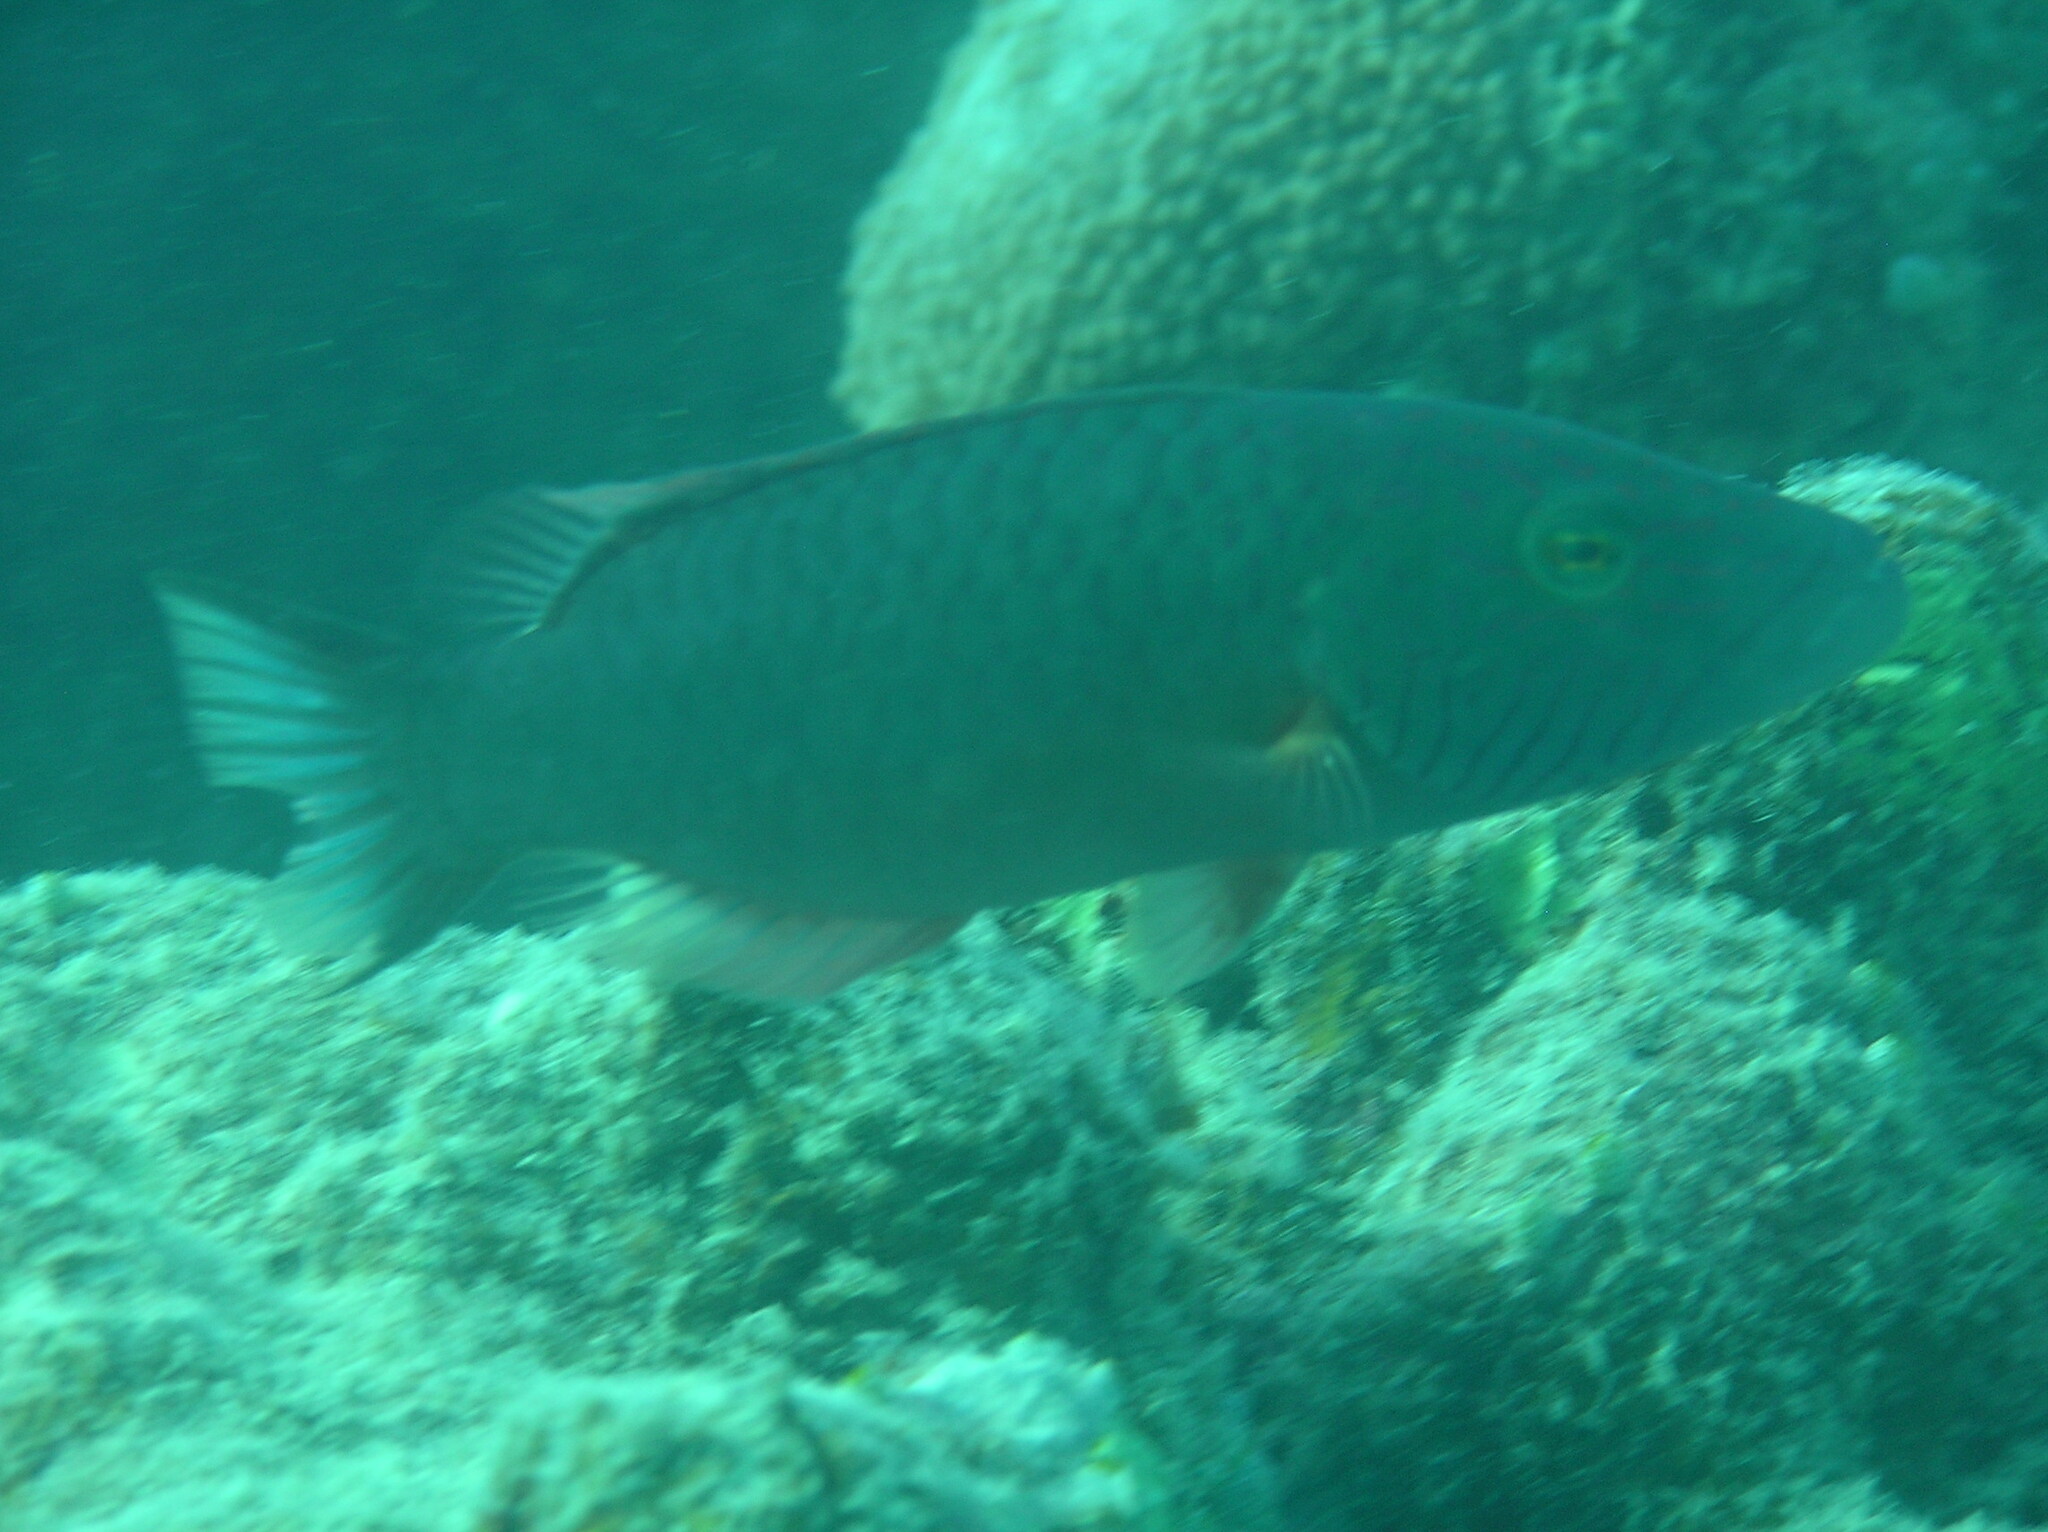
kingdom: Animalia
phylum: Chordata
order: Perciformes
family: Labridae
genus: Oxycheilinus
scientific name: Oxycheilinus digramma
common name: Bandcheek wrasse
